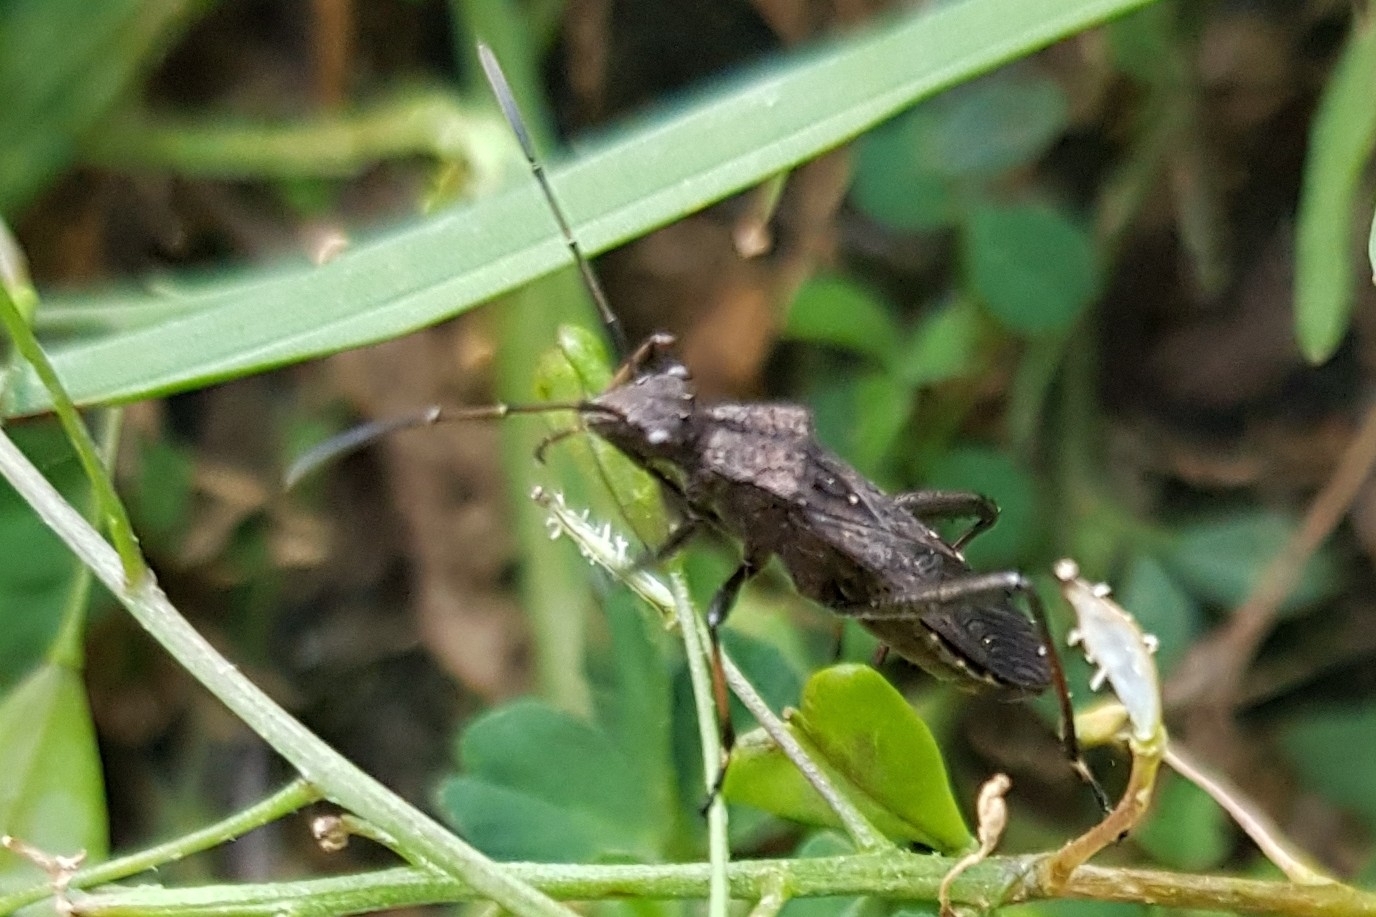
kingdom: Animalia
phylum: Arthropoda
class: Insecta
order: Hemiptera
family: Alydidae
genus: Alydus
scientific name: Alydus calcaratus
